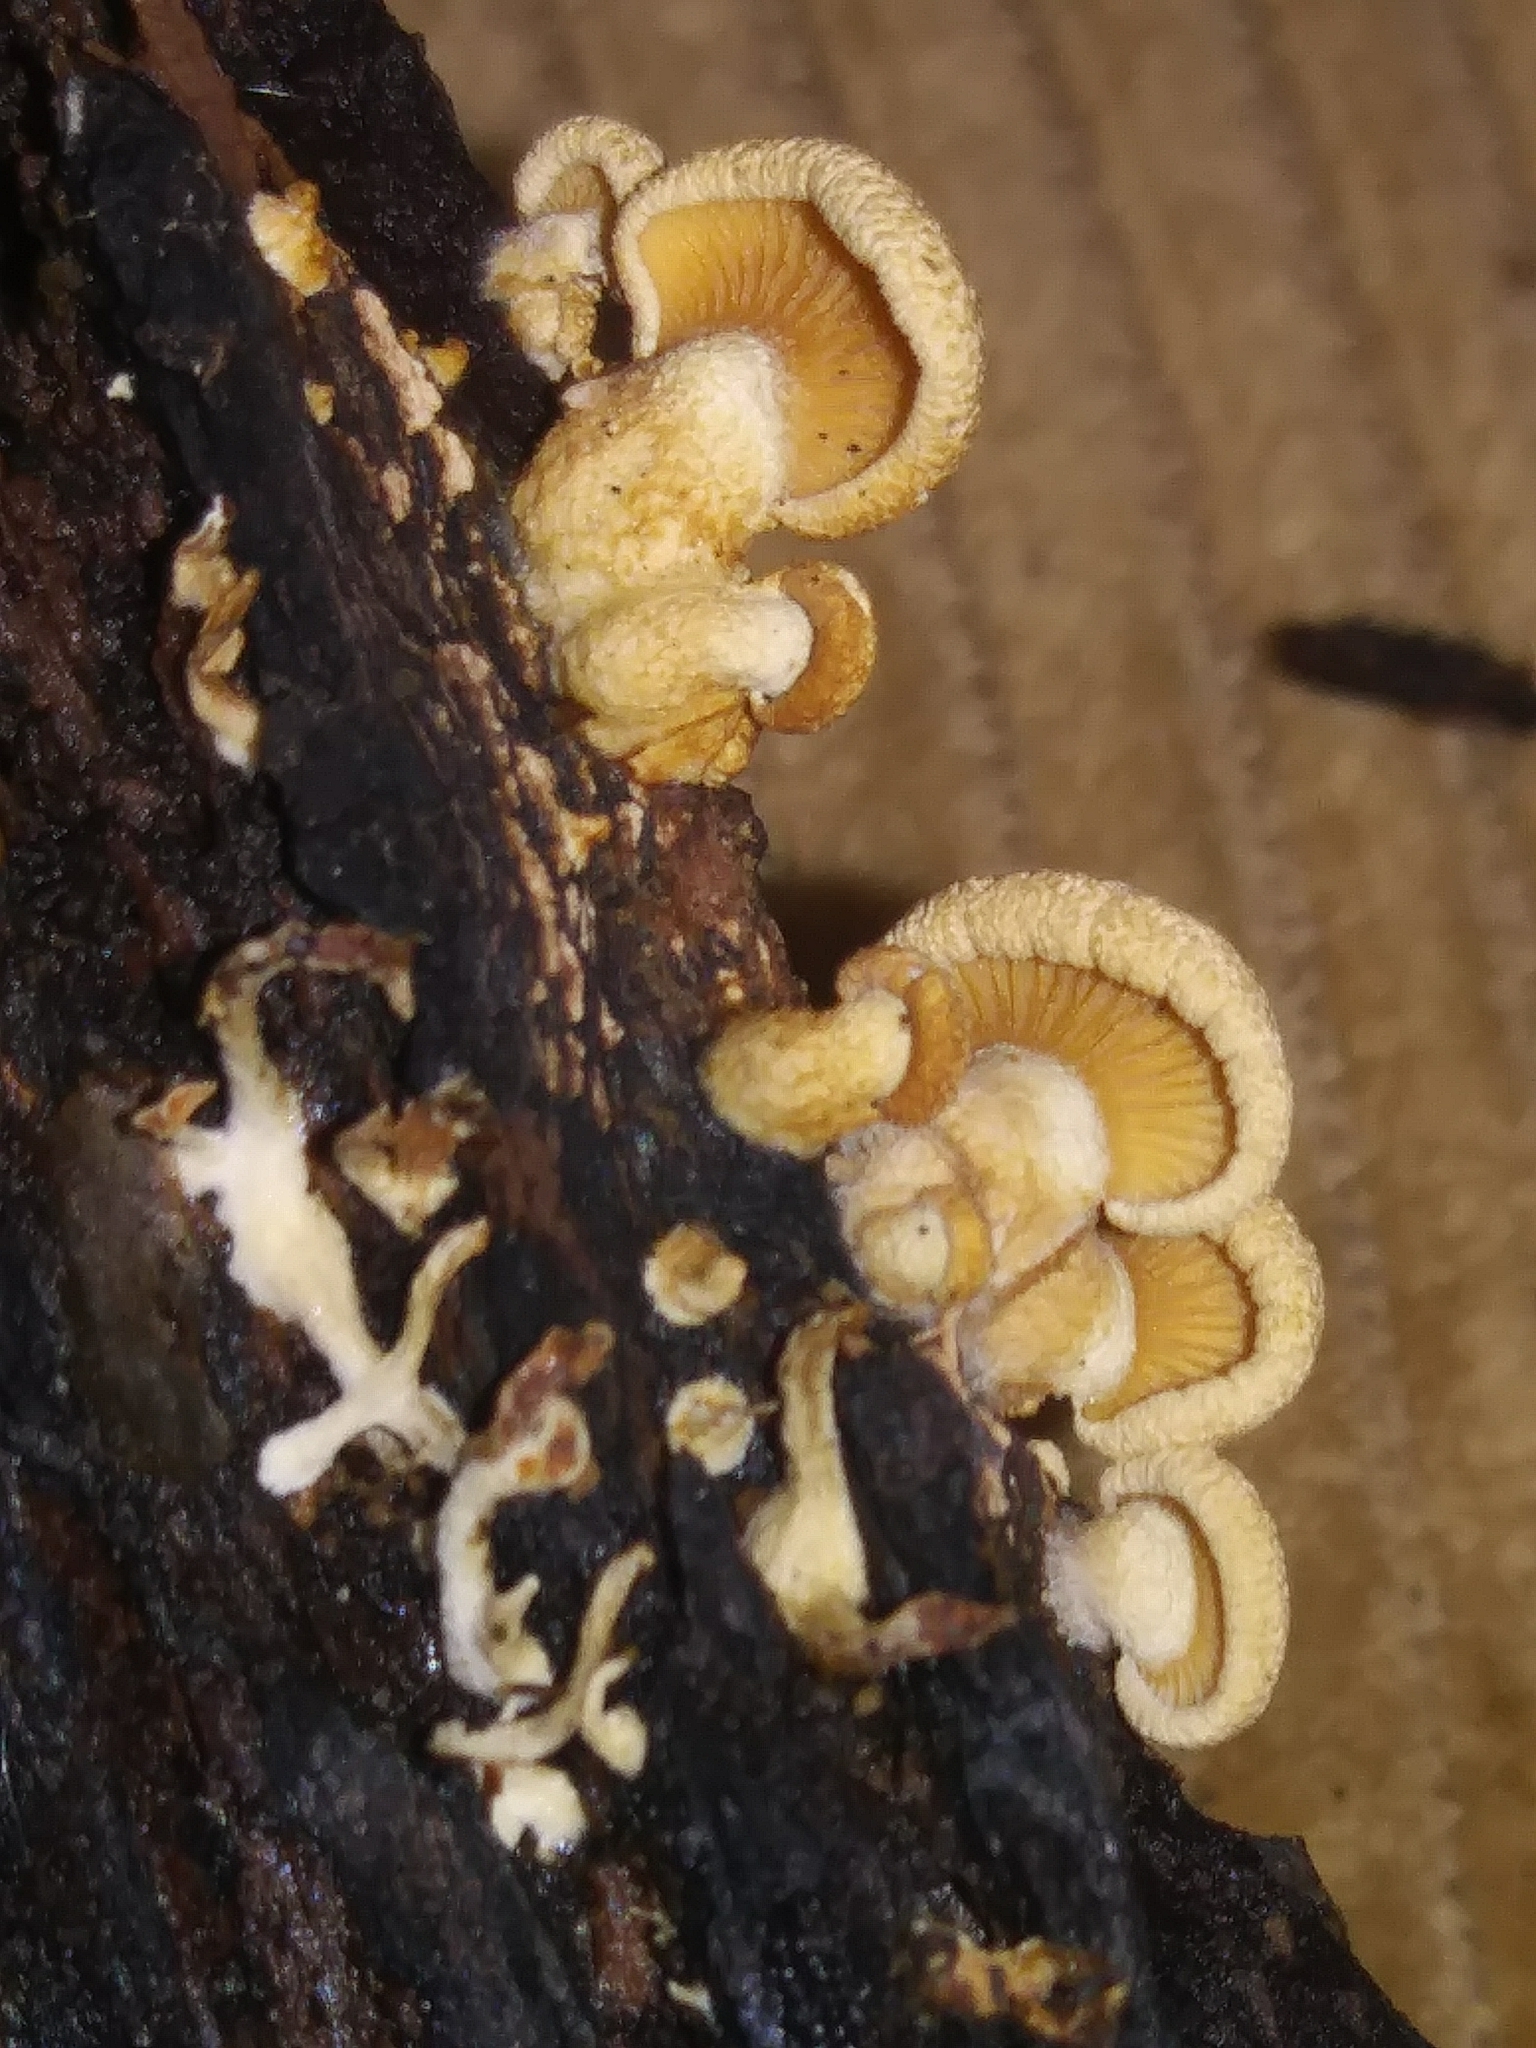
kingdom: Fungi
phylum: Basidiomycota
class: Agaricomycetes
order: Agaricales
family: Mycenaceae
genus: Panellus
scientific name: Panellus stipticus
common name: Bitter oysterling
